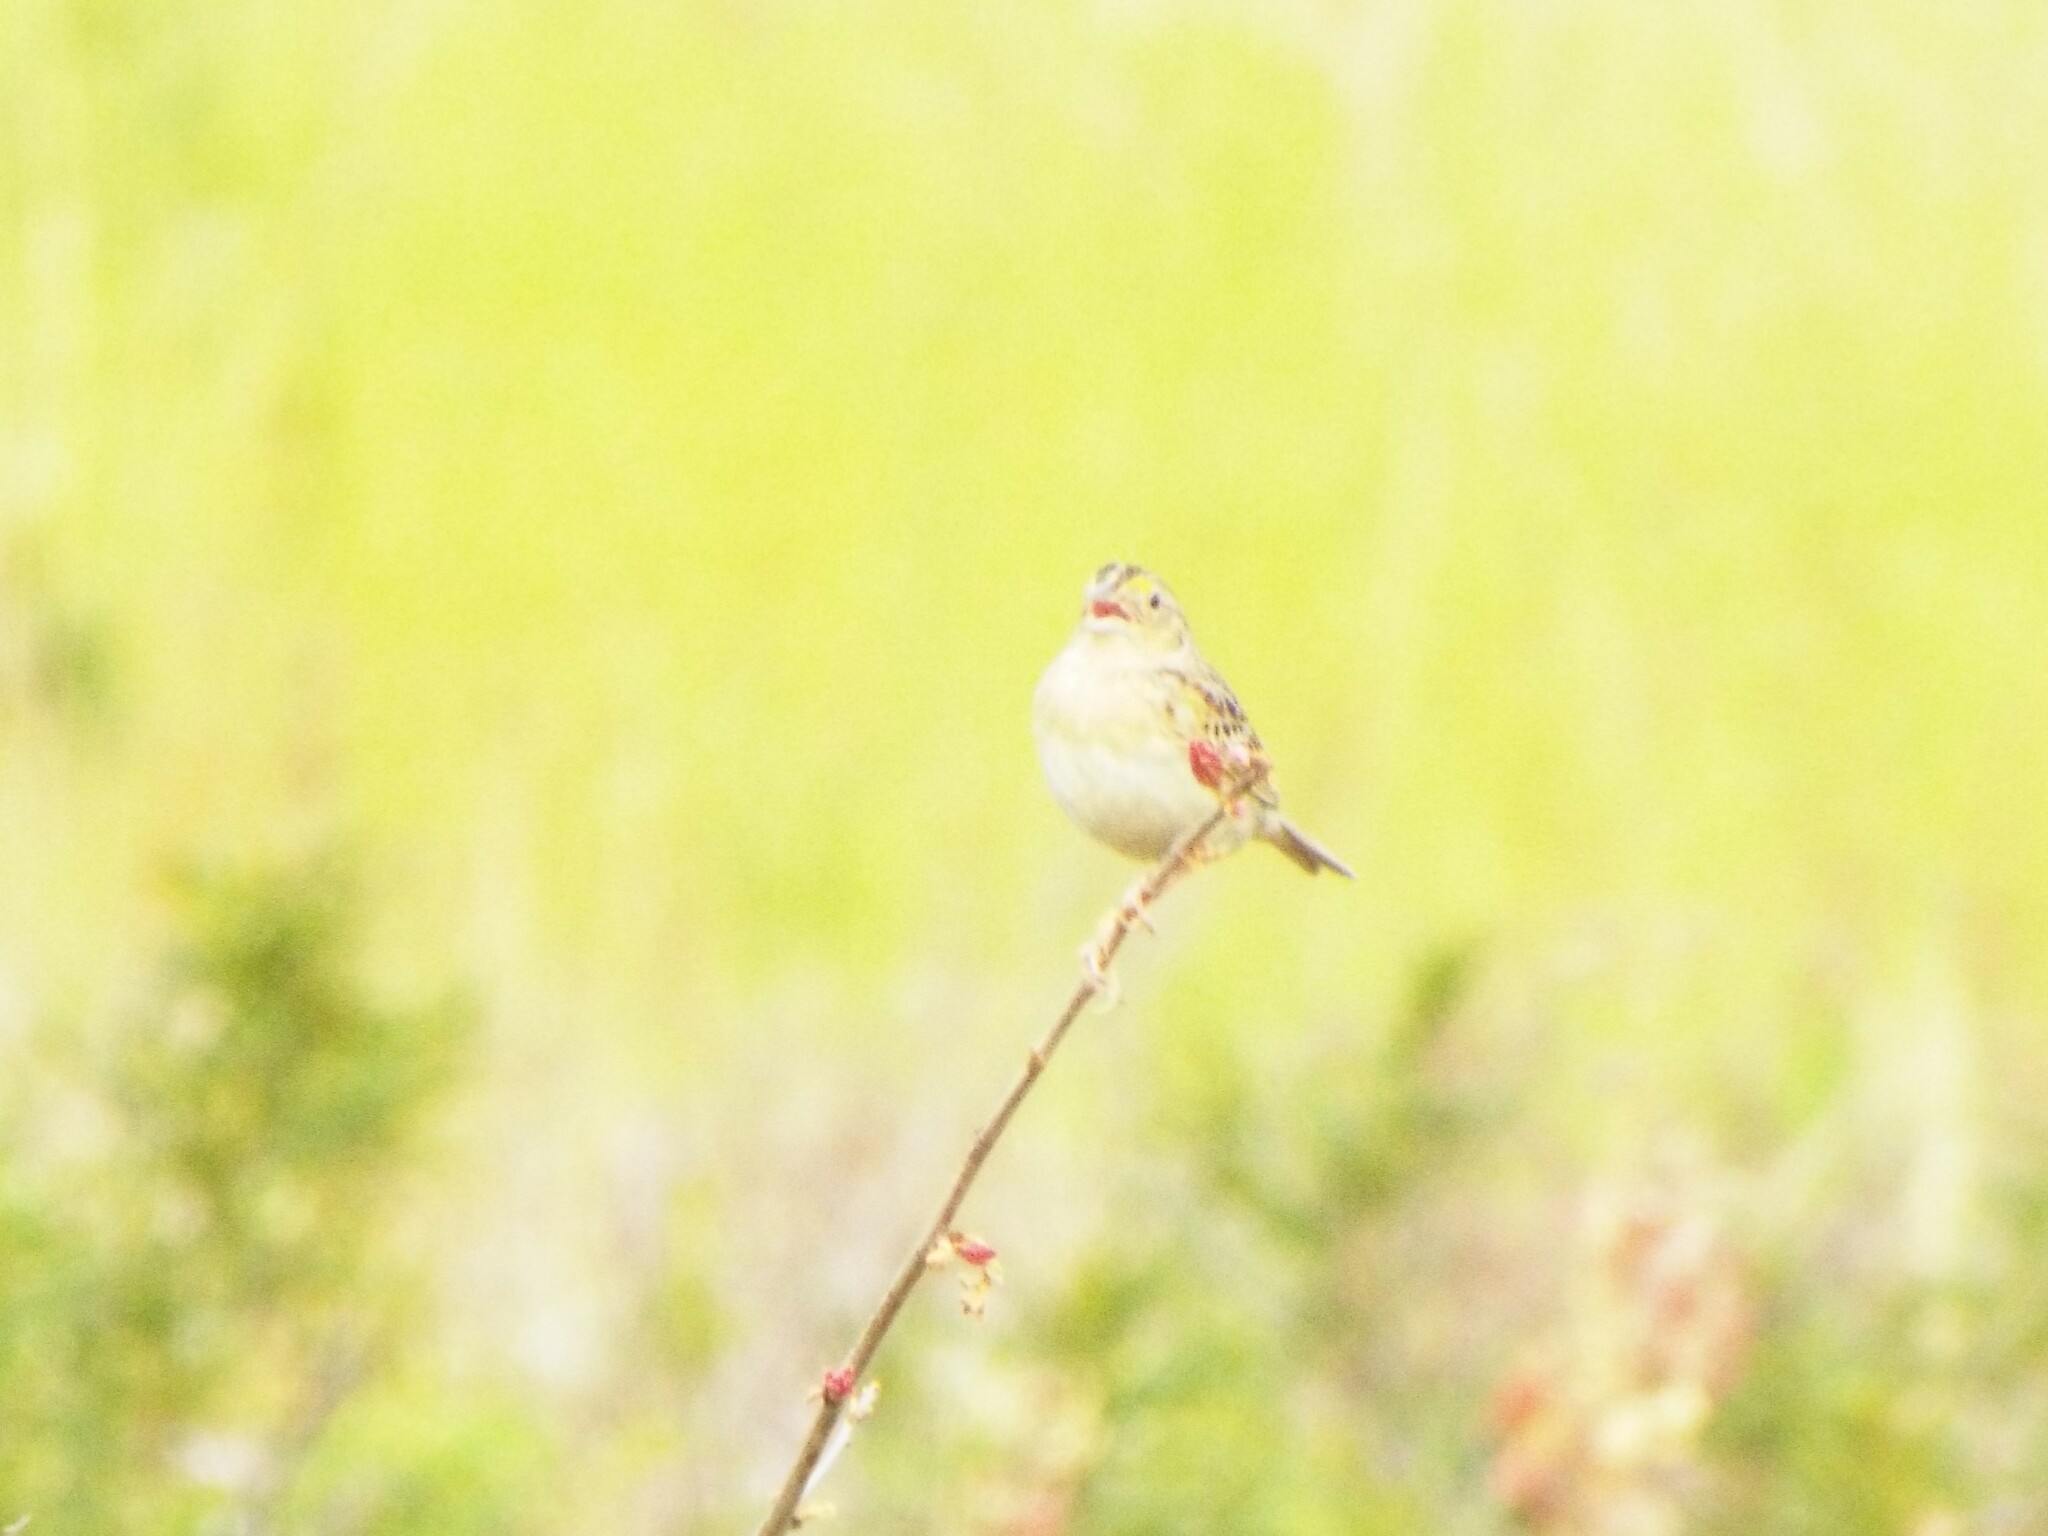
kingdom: Animalia
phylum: Chordata
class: Aves
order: Passeriformes
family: Passerellidae
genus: Ammodramus
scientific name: Ammodramus savannarum
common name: Grasshopper sparrow
